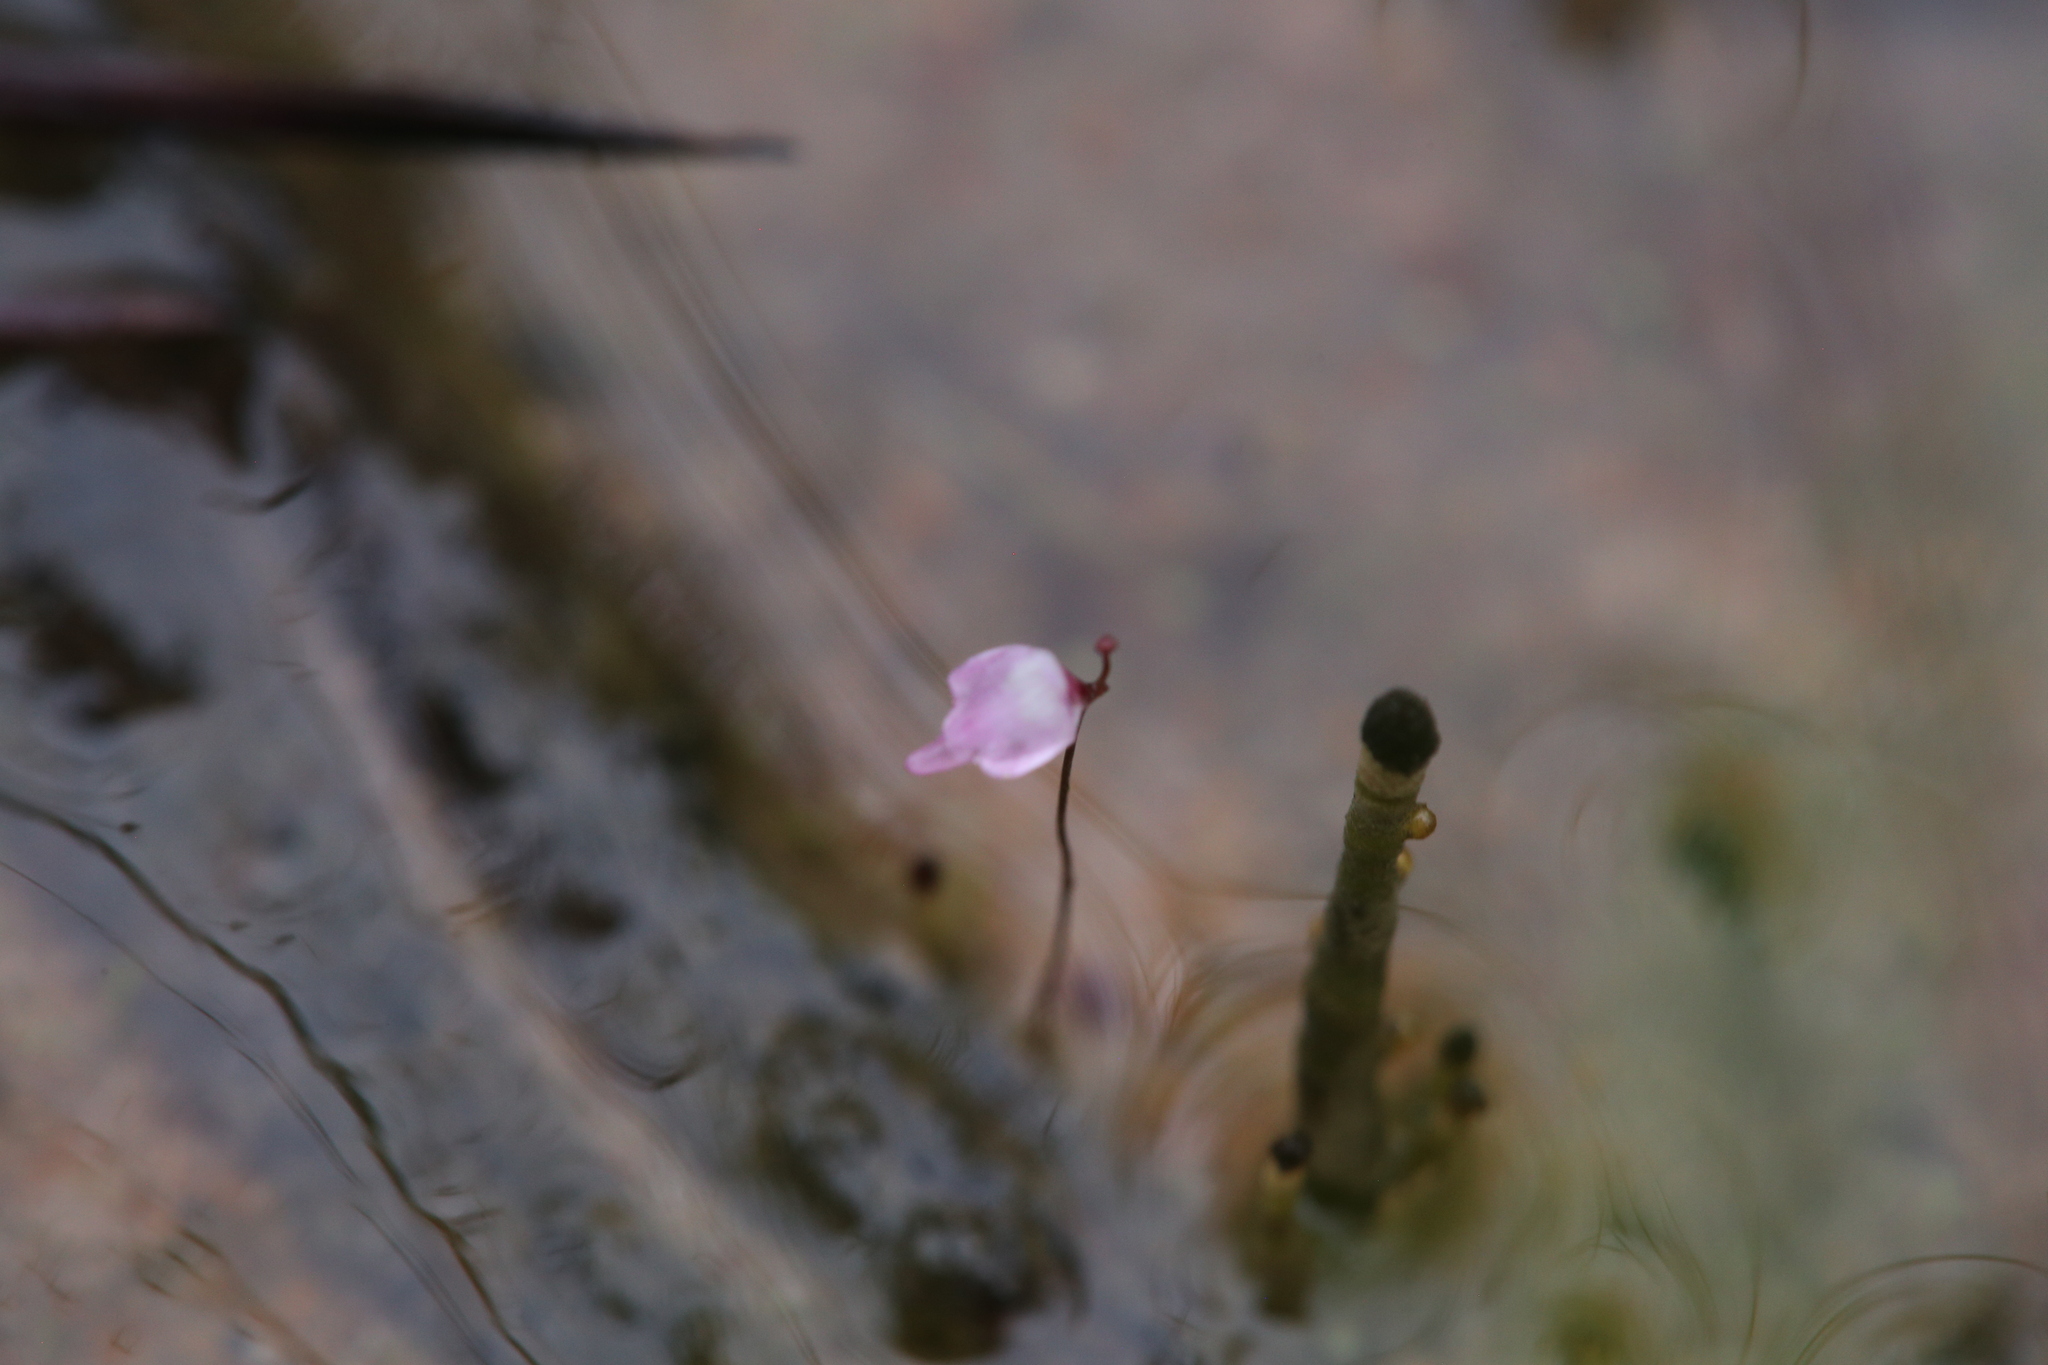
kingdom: Plantae
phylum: Tracheophyta
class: Magnoliopsida
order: Lamiales
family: Lentibulariaceae
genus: Utricularia
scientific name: Utricularia minutissima
